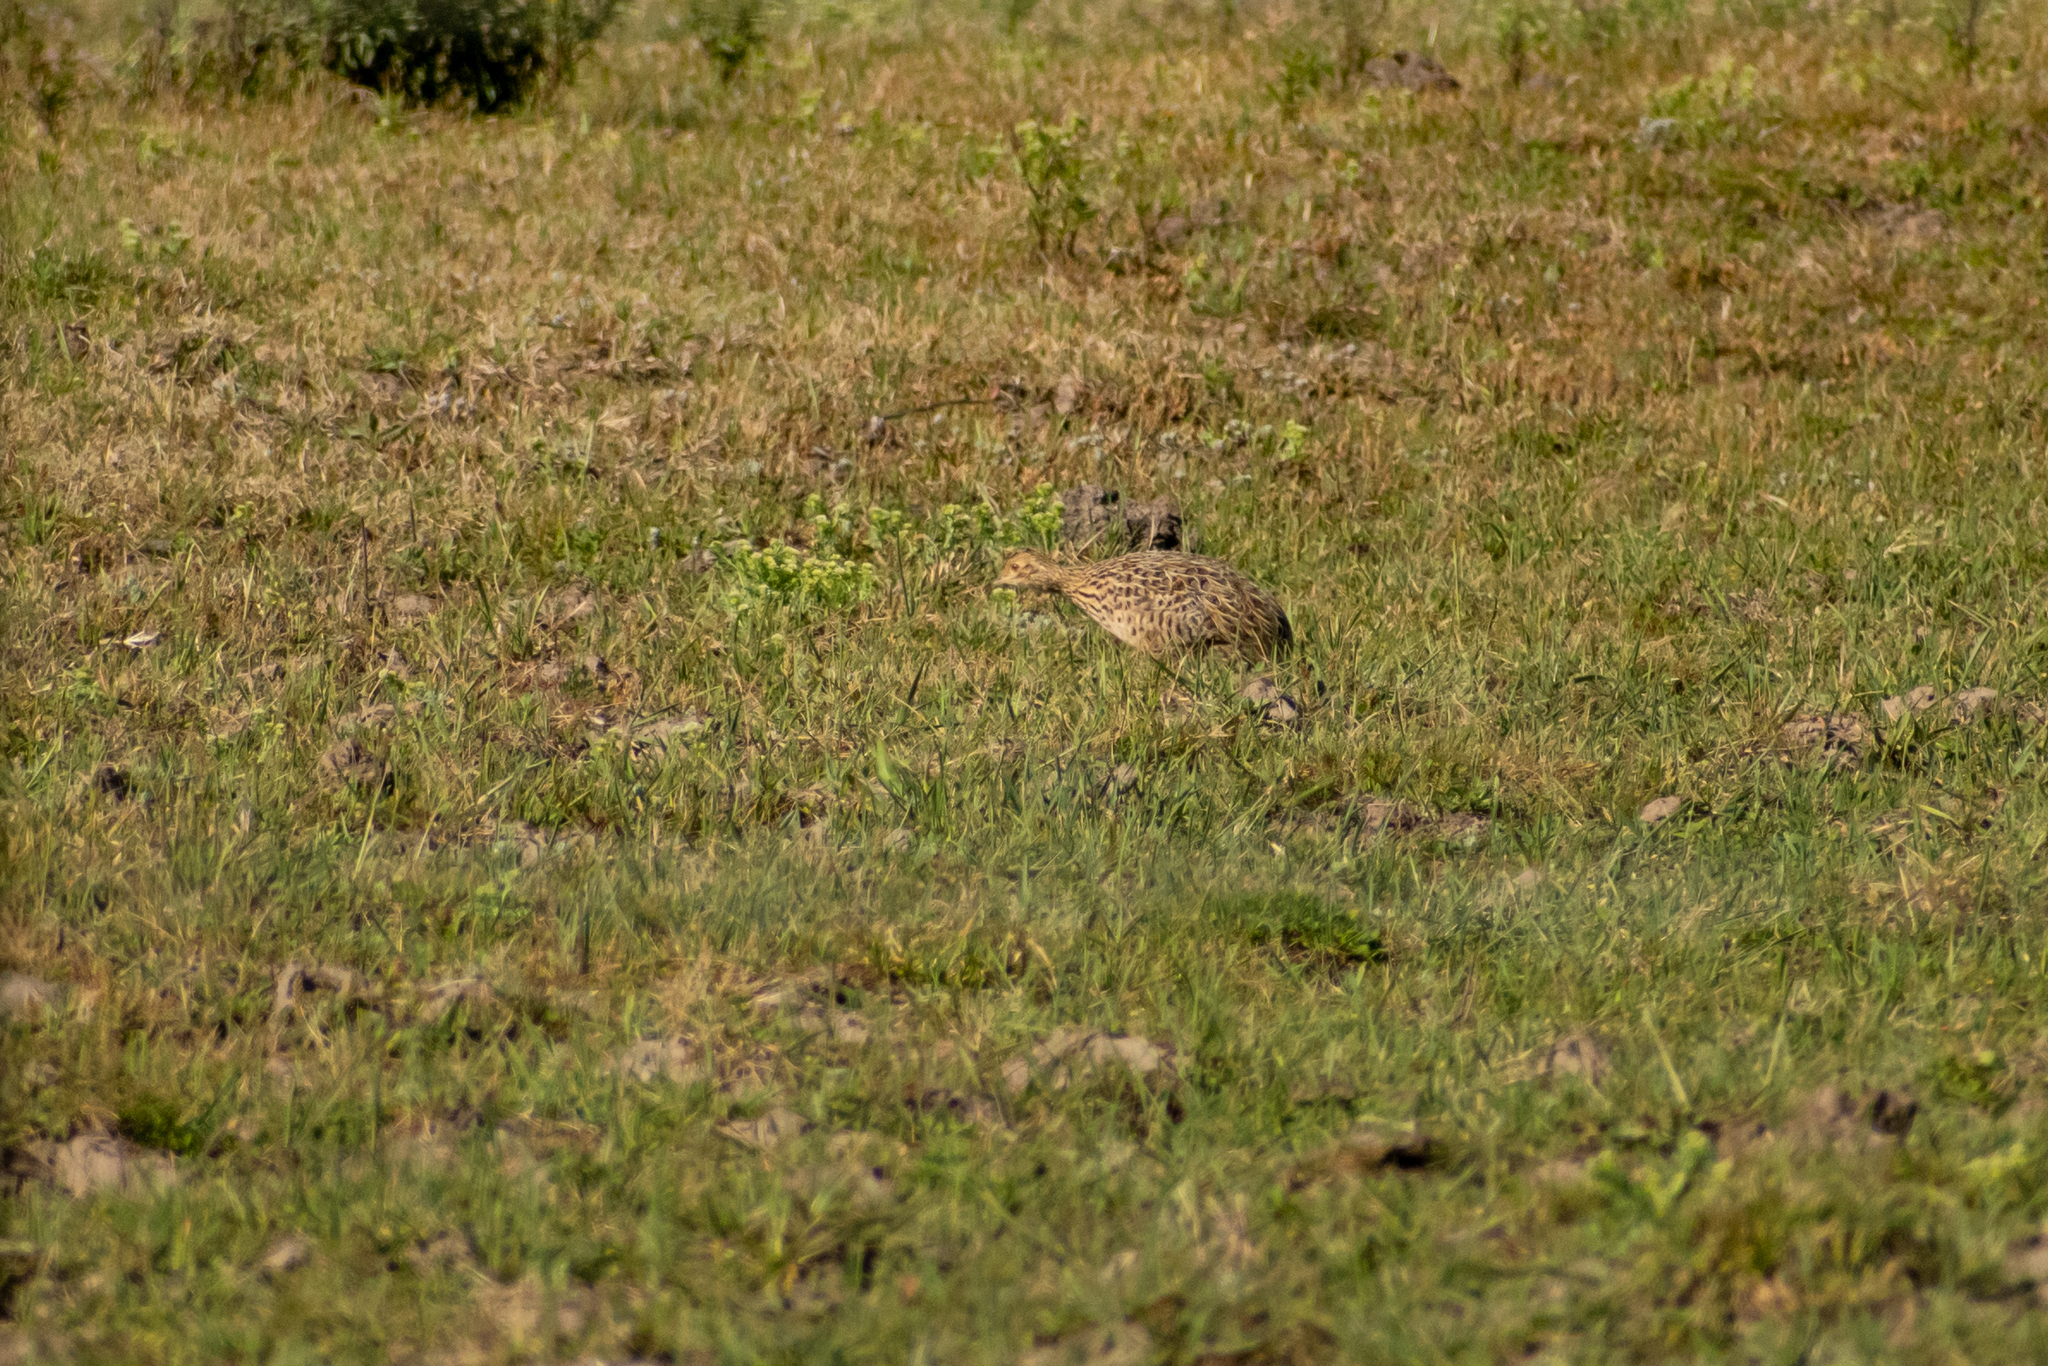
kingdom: Animalia
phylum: Chordata
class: Aves
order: Tinamiformes
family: Tinamidae
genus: Nothura
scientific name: Nothura maculosa
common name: Spotted nothura
